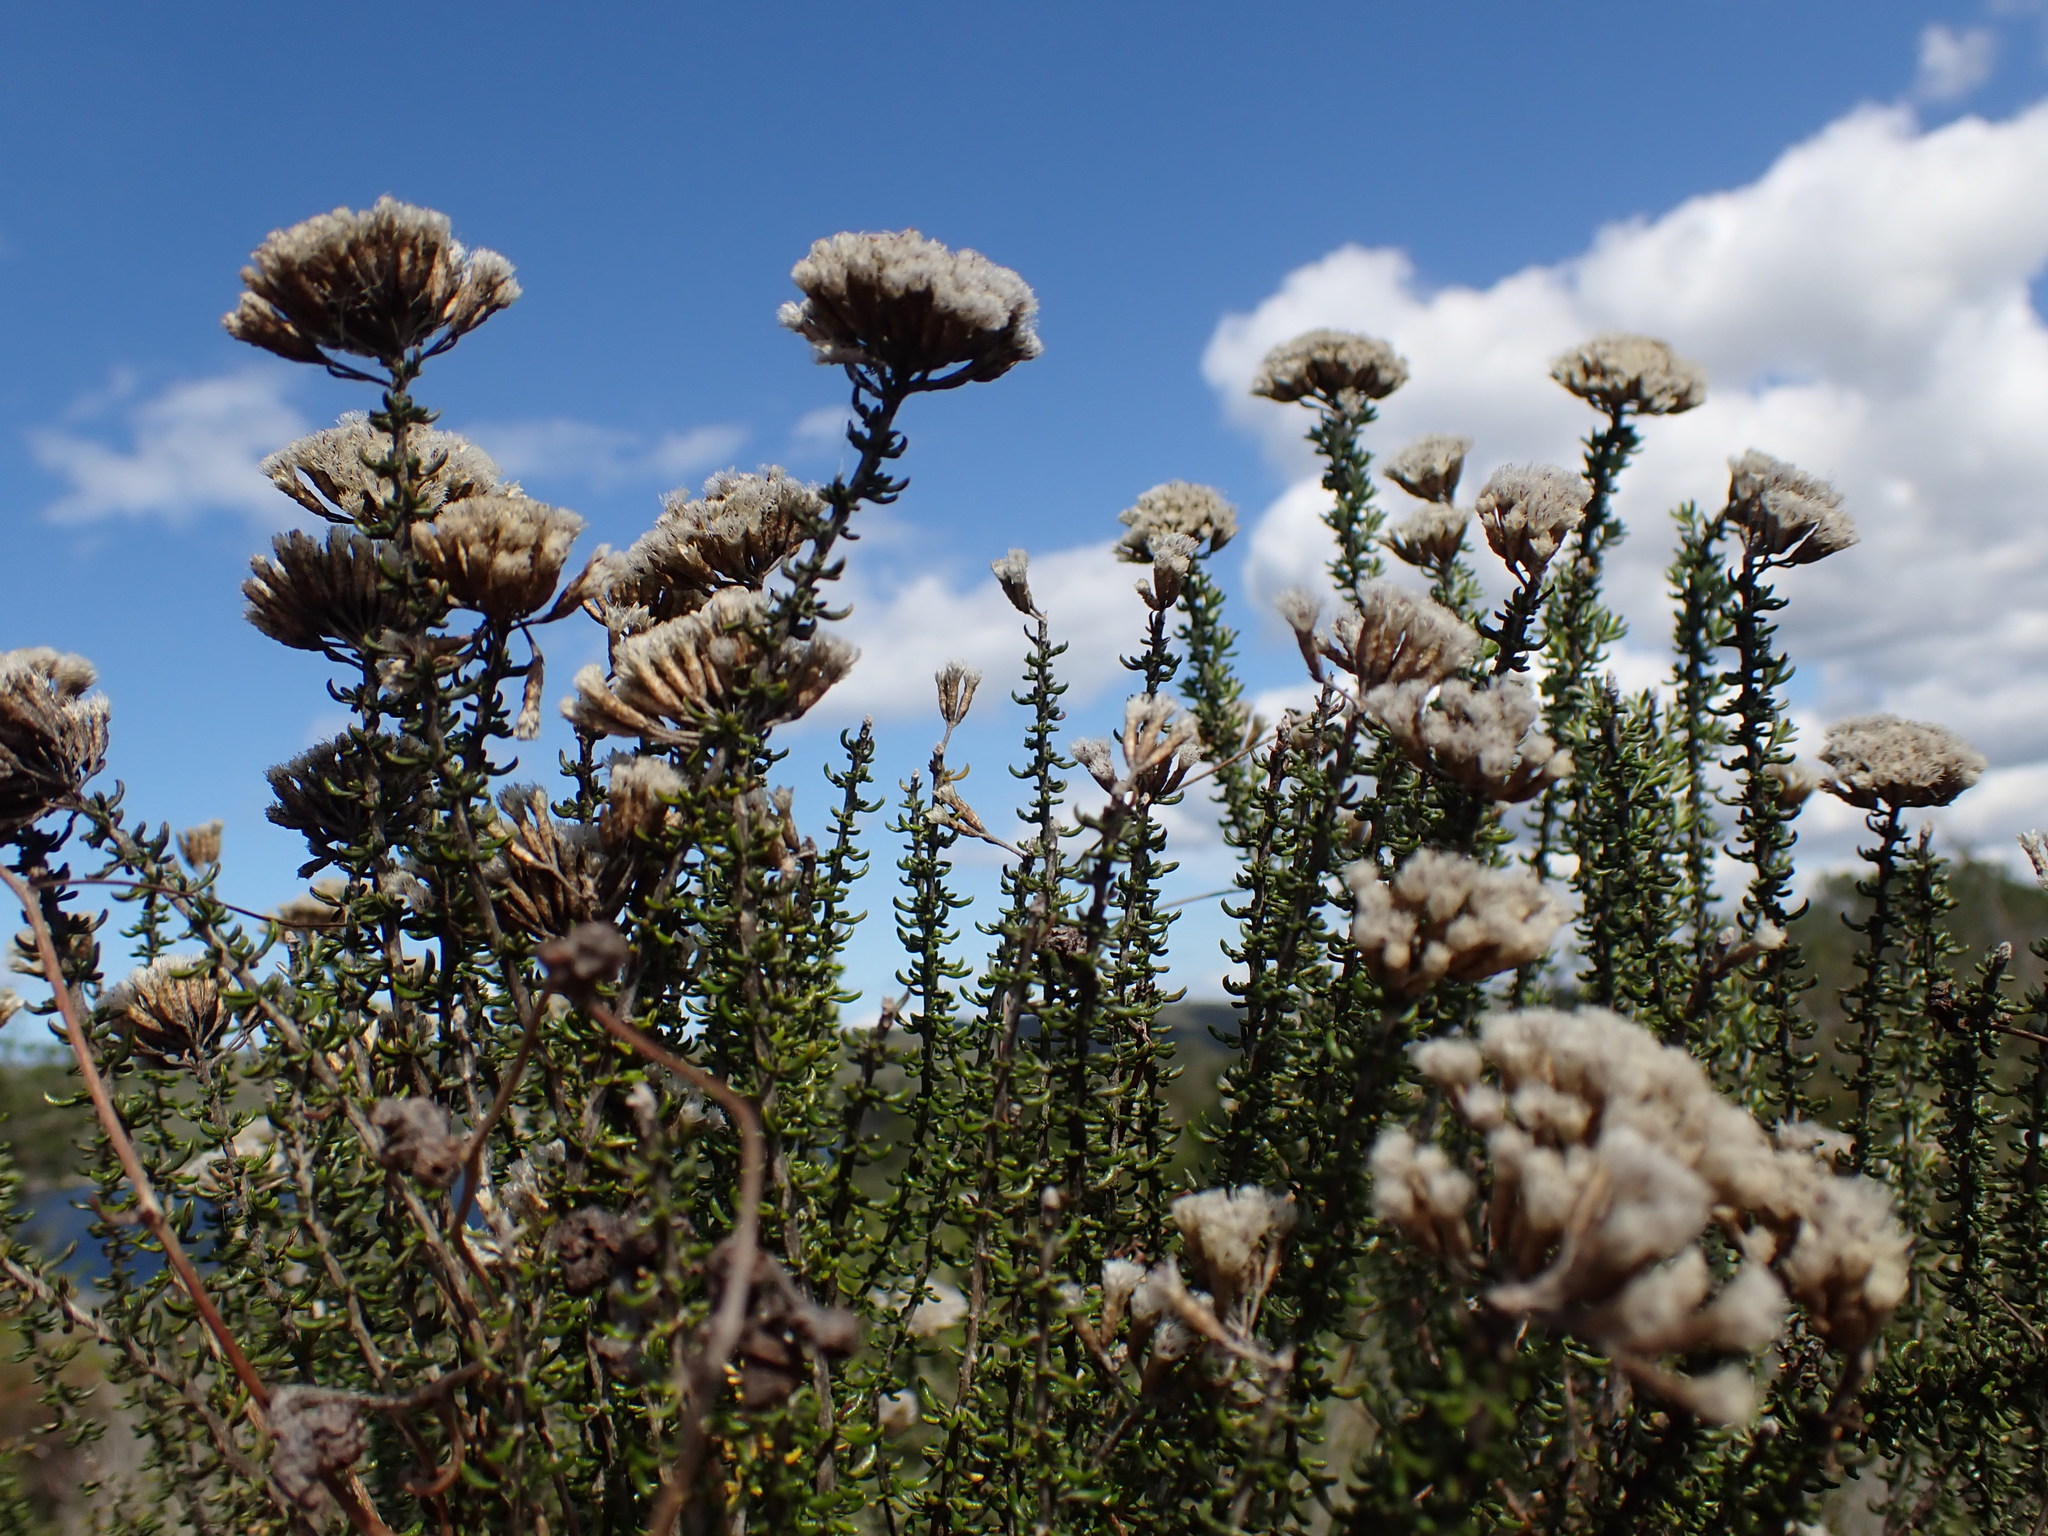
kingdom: Plantae
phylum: Tracheophyta
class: Magnoliopsida
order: Asterales
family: Asteraceae
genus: Metalasia
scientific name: Metalasia muricata
